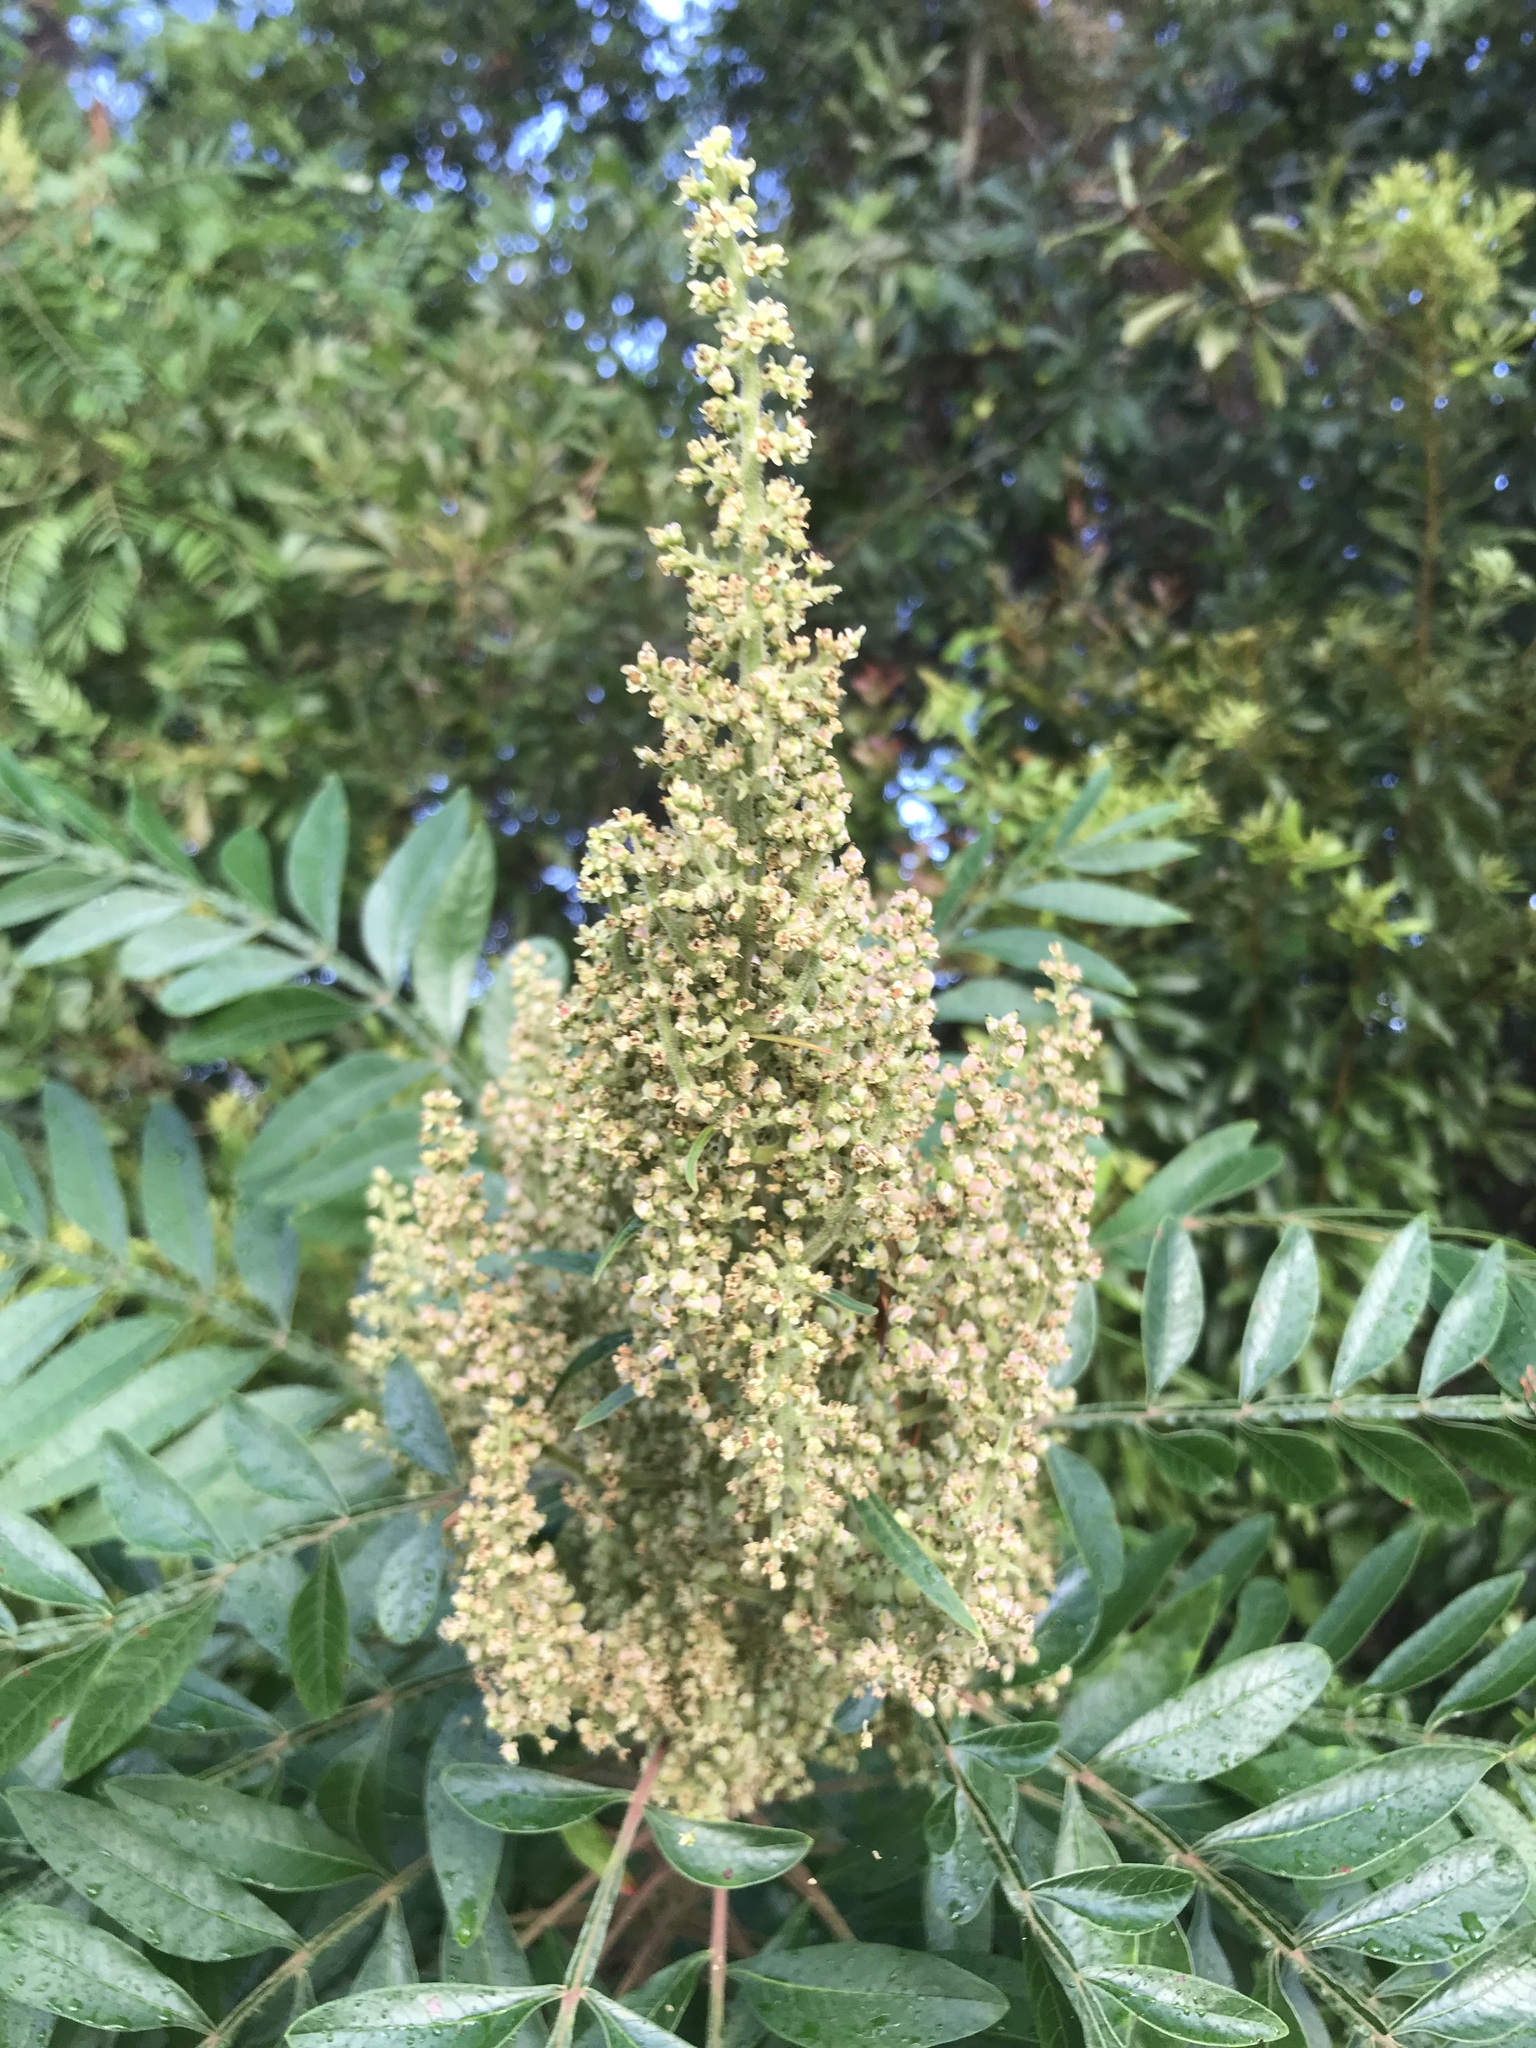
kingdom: Plantae
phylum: Tracheophyta
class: Magnoliopsida
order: Sapindales
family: Anacardiaceae
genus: Rhus
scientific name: Rhus copallina
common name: Shining sumac
